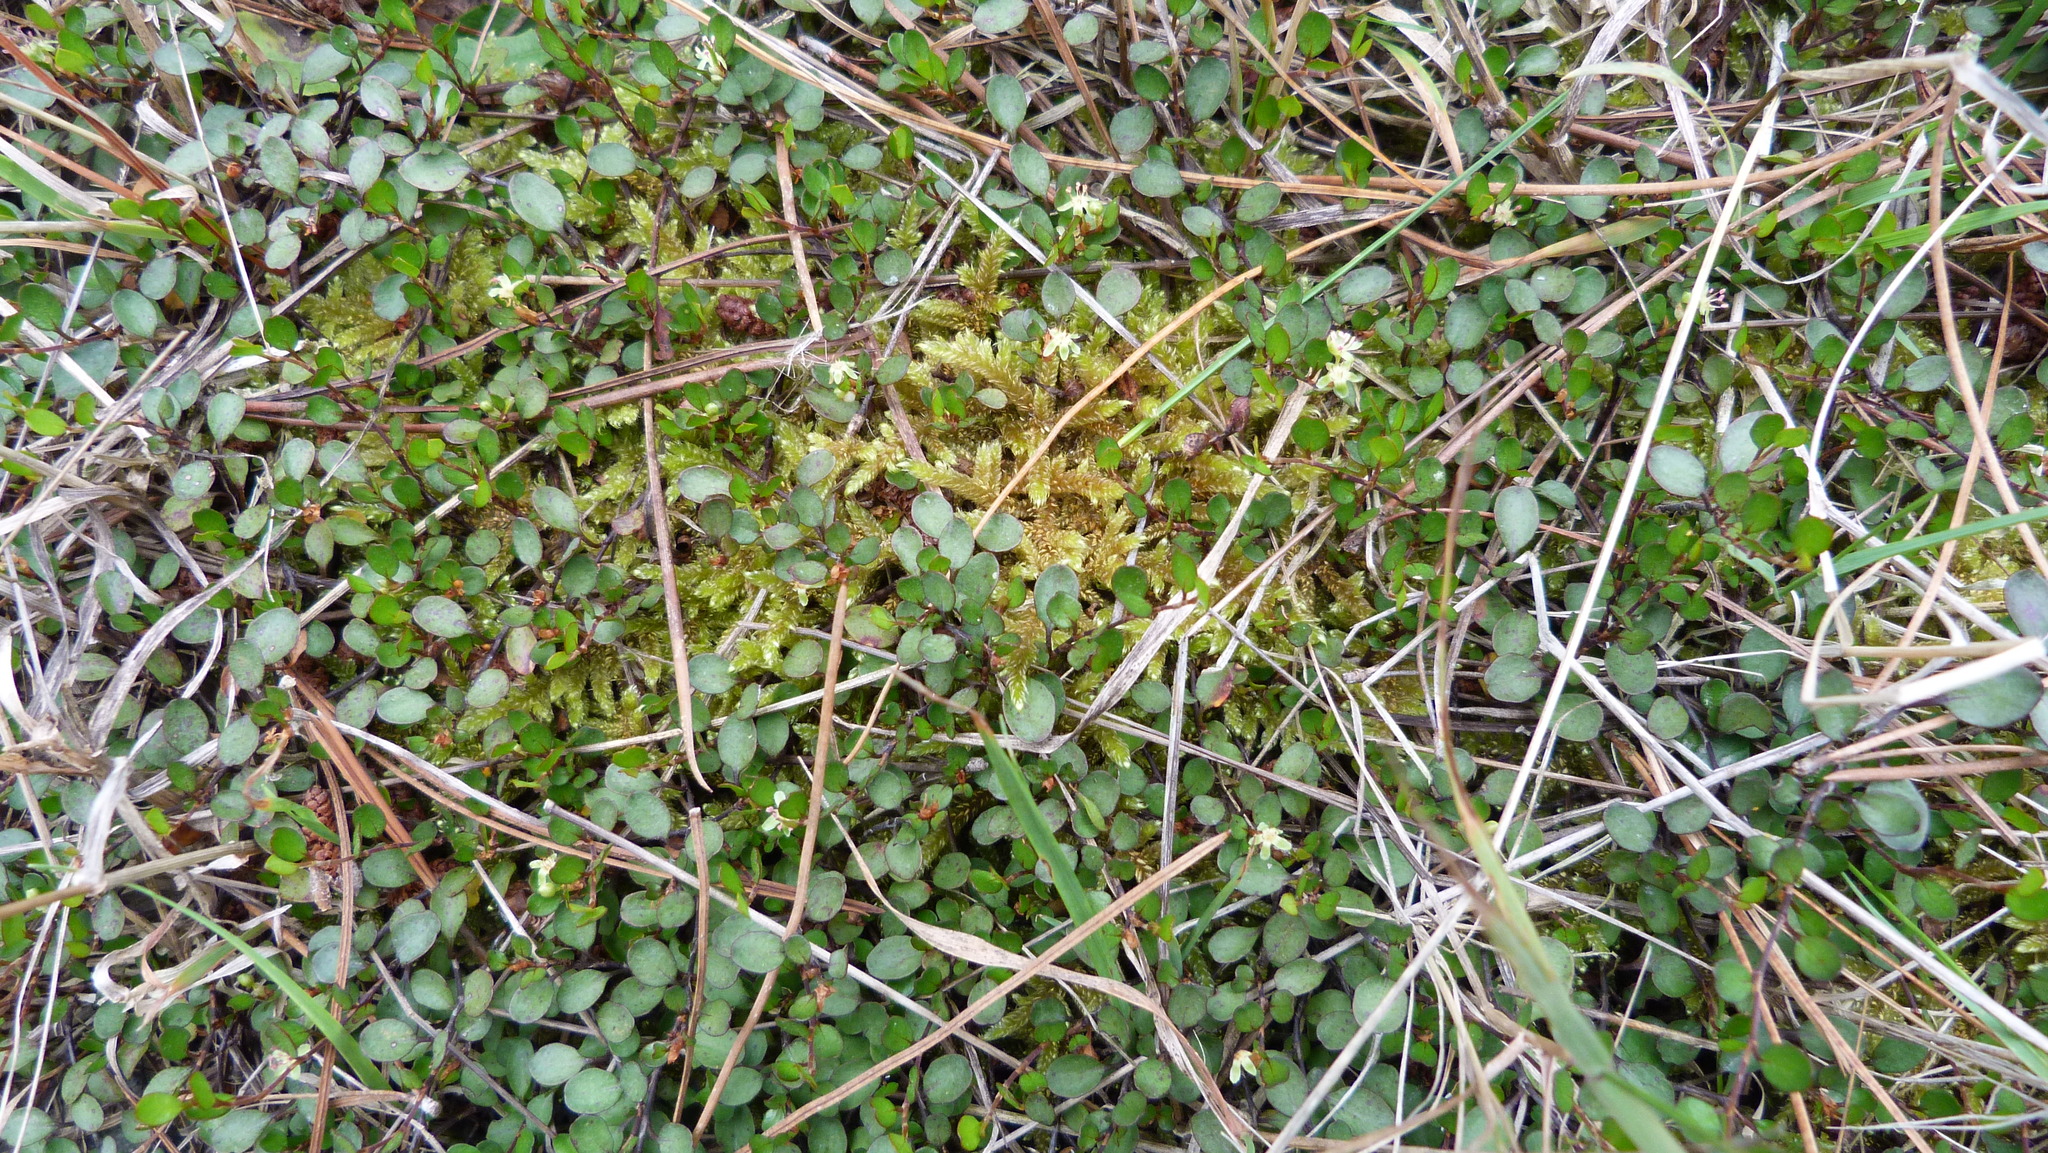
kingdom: Plantae
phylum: Tracheophyta
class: Magnoliopsida
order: Caryophyllales
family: Polygonaceae
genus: Muehlenbeckia
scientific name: Muehlenbeckia axillaris
